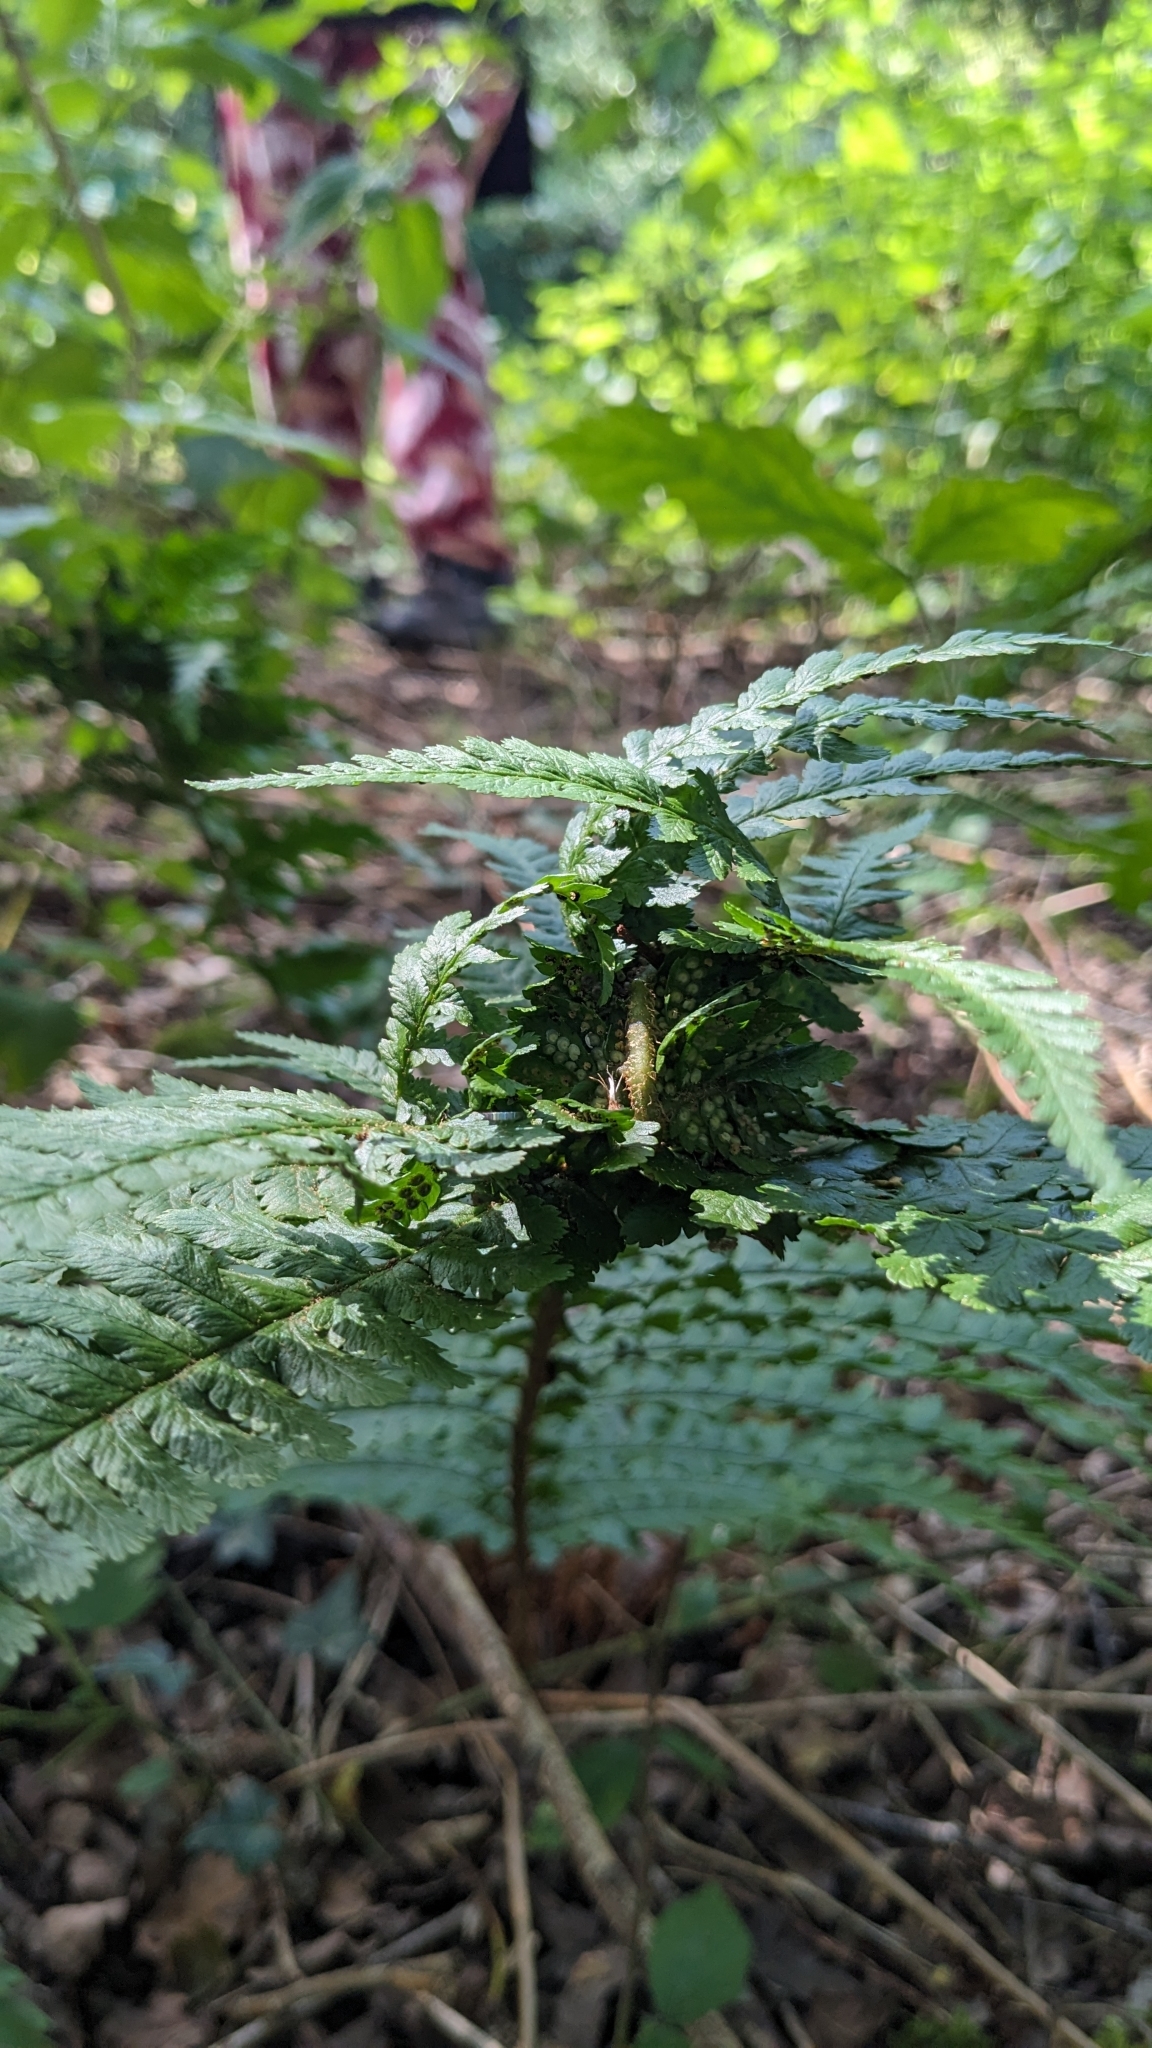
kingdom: Animalia
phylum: Arthropoda
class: Insecta
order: Diptera
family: Anthomyiidae
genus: Chirosia
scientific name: Chirosia betuleti
